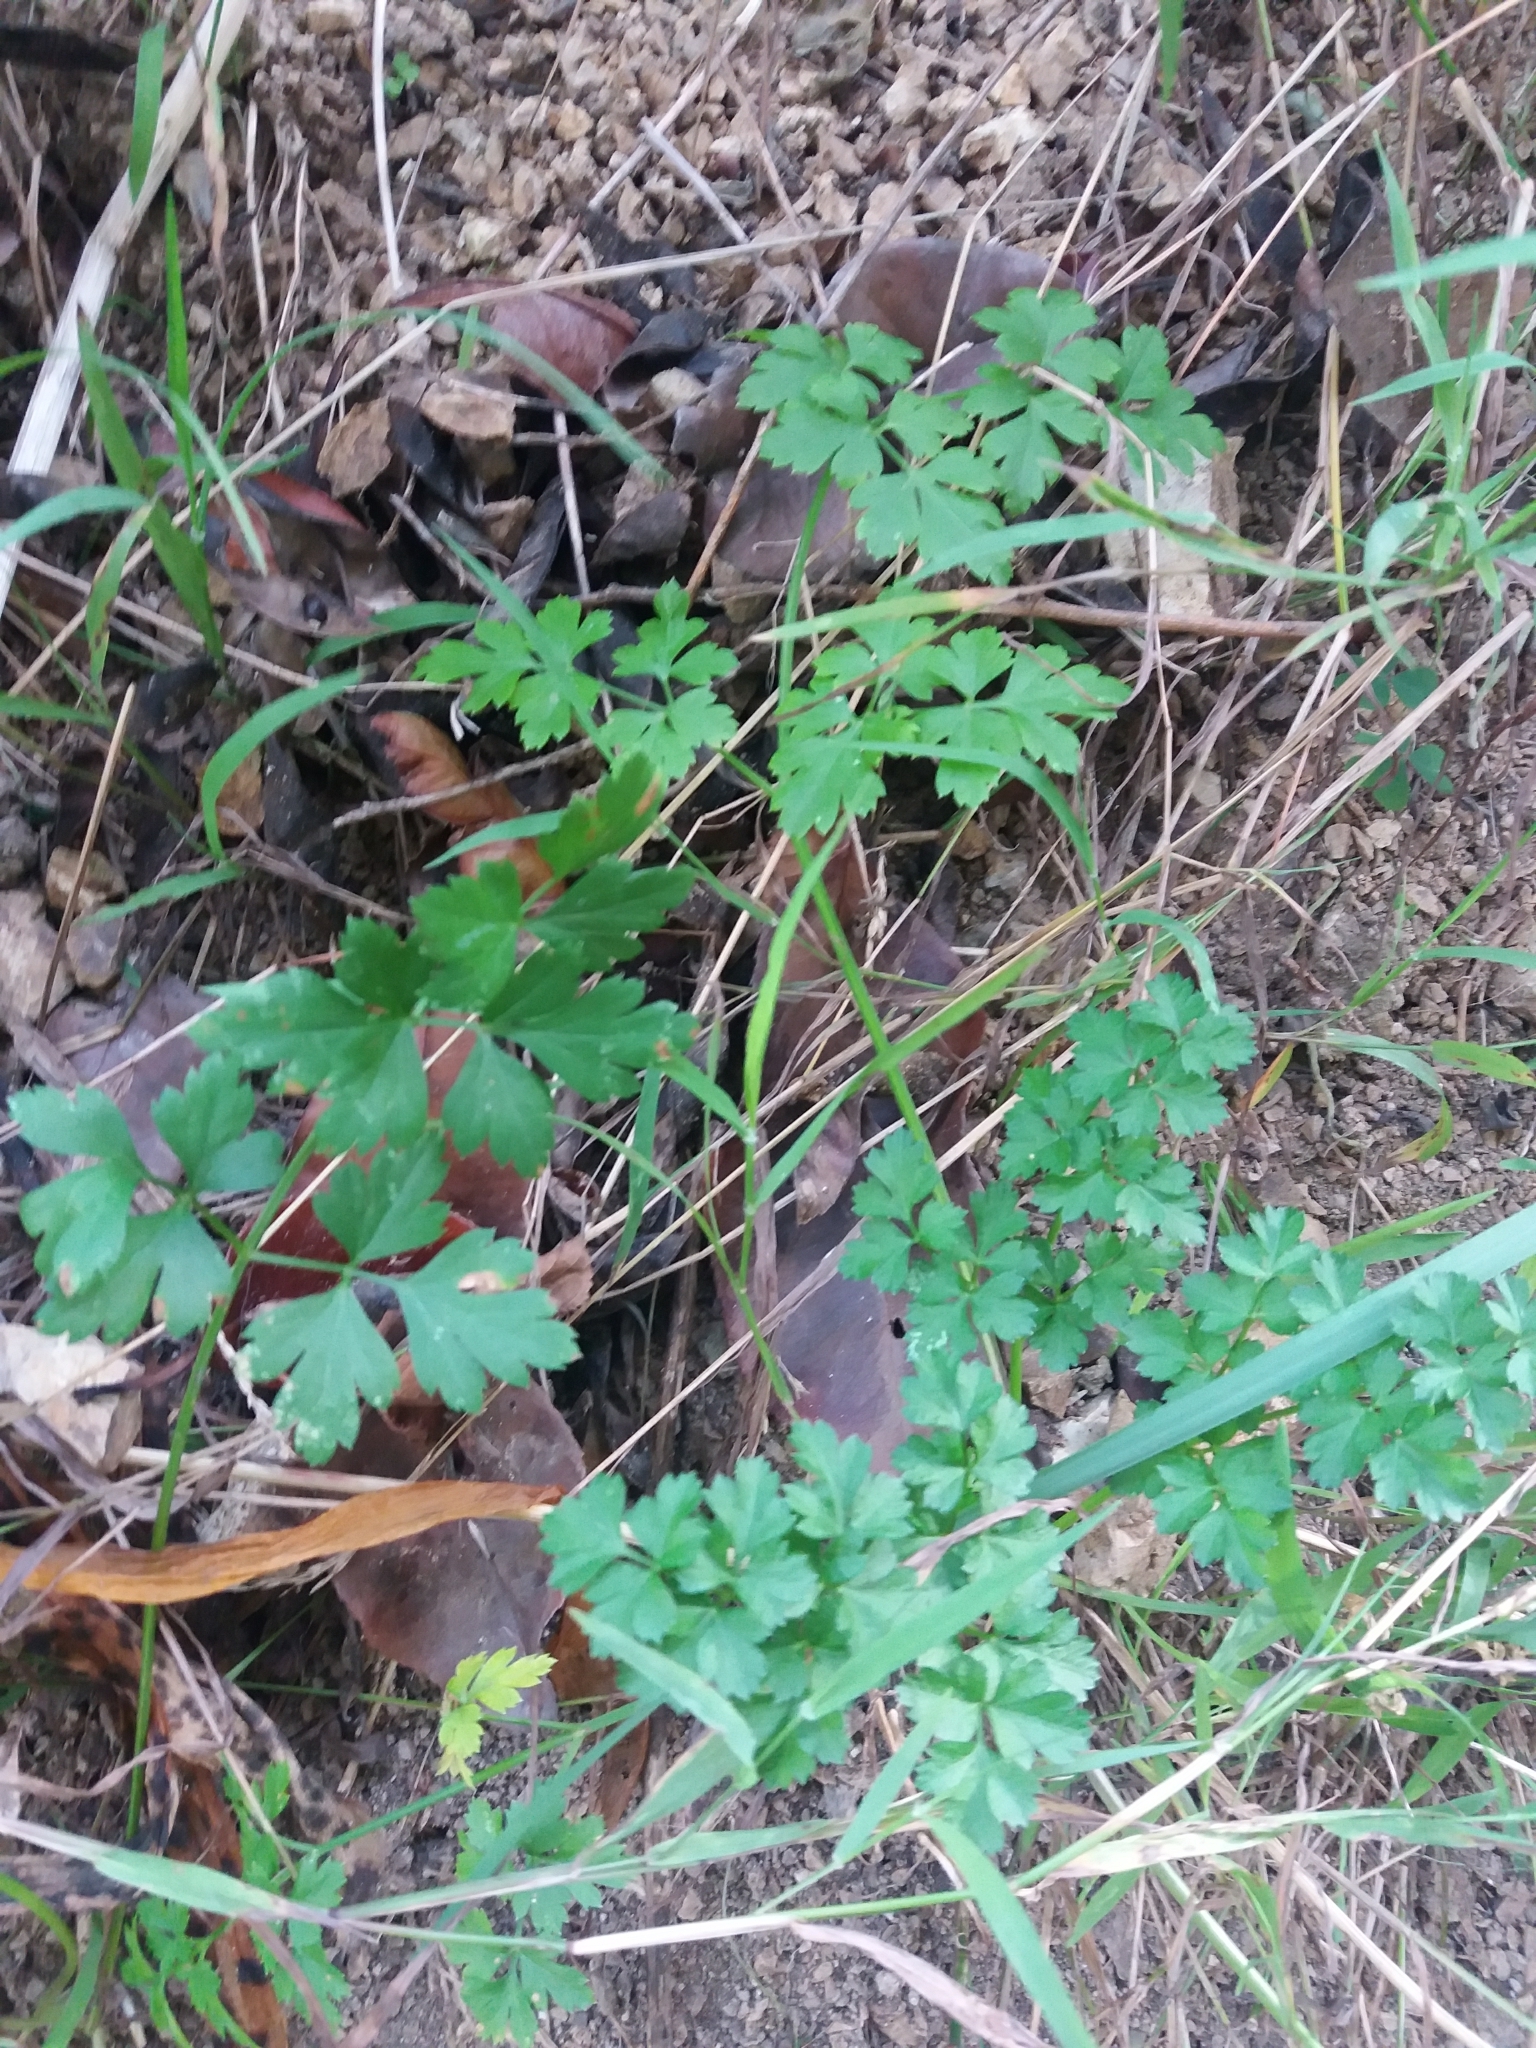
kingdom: Plantae
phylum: Tracheophyta
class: Magnoliopsida
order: Apiales
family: Apiaceae
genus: Petroselinum
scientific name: Petroselinum crispum
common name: Parsley
